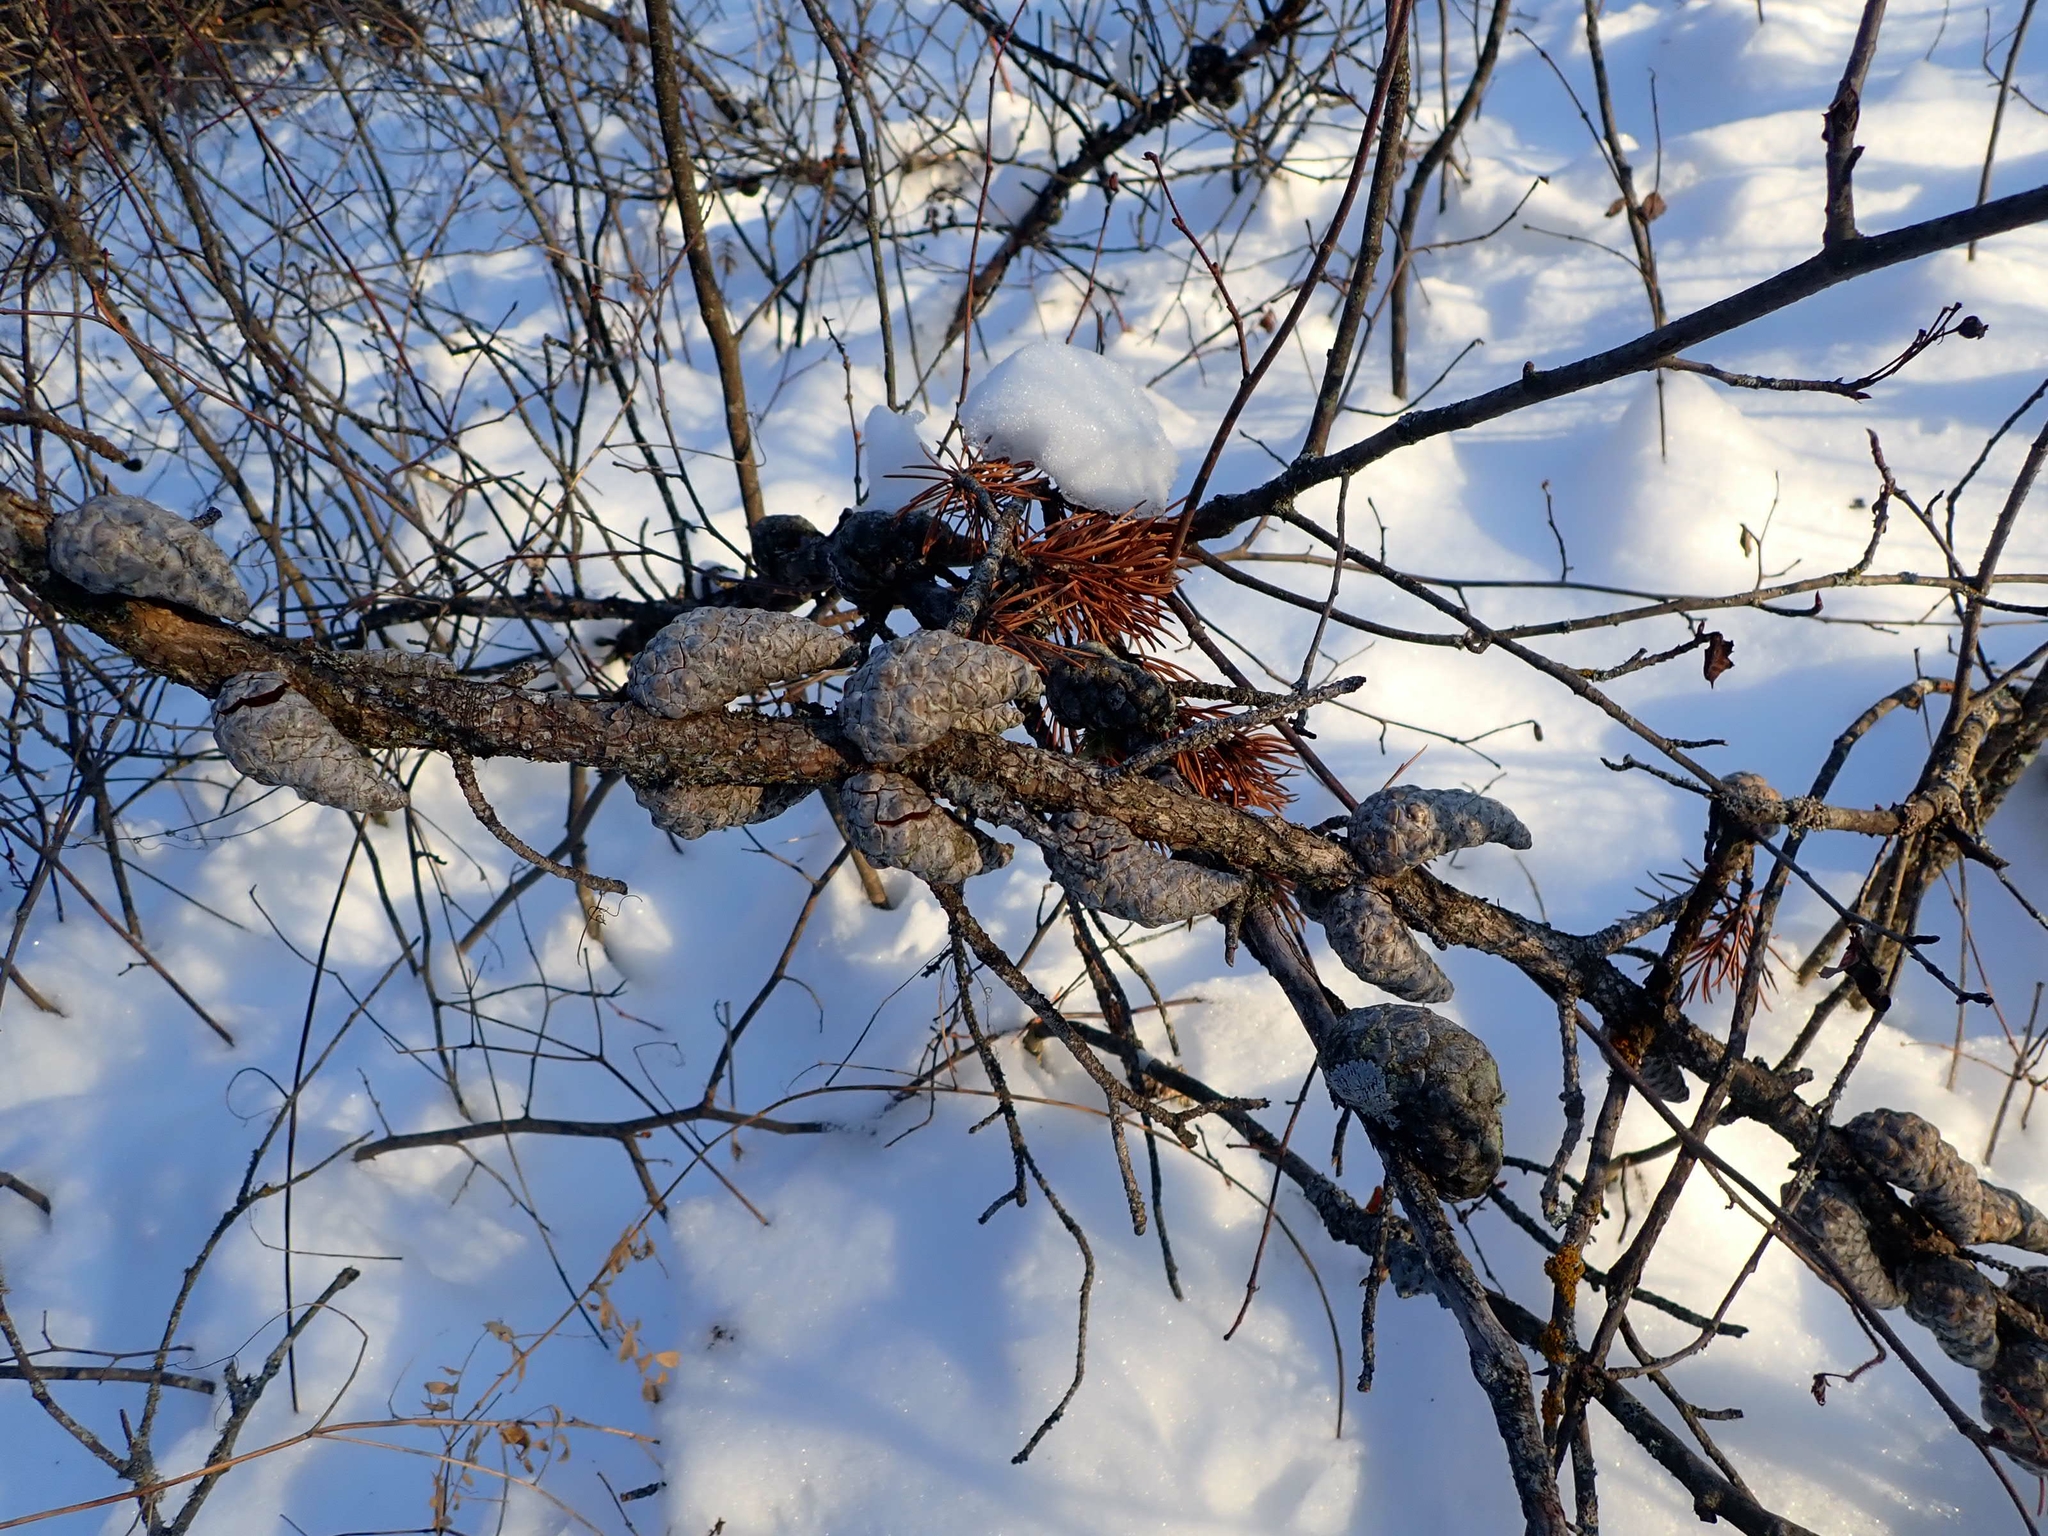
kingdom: Plantae
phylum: Tracheophyta
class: Pinopsida
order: Pinales
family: Pinaceae
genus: Pinus
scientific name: Pinus banksiana
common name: Jack pine
